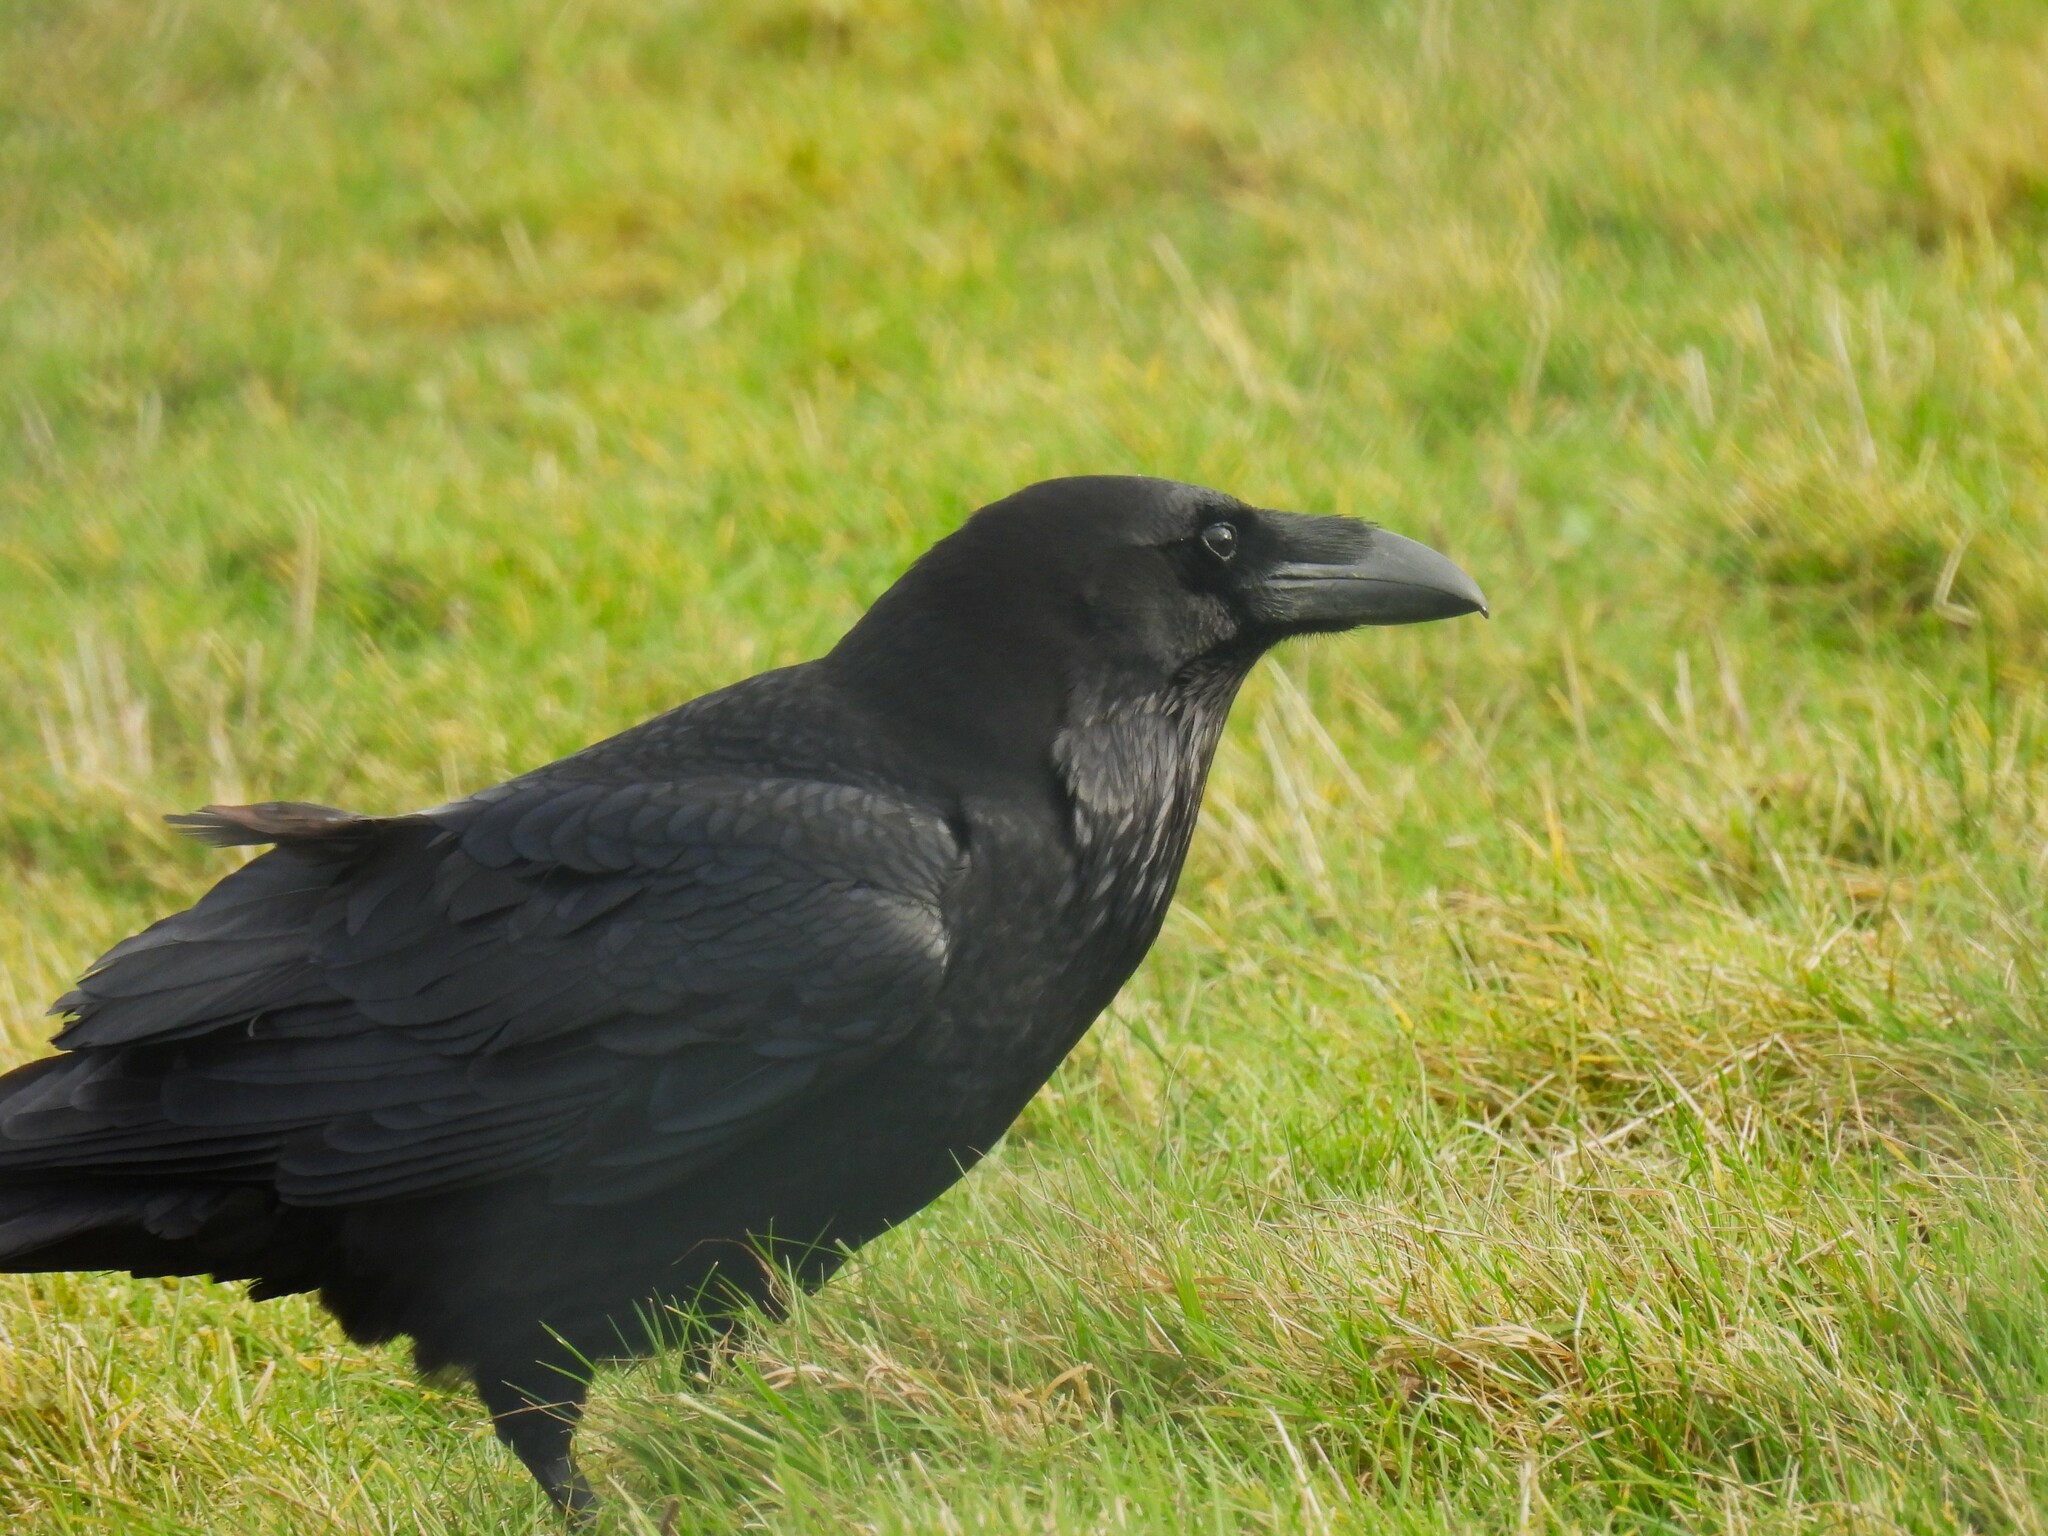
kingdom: Animalia
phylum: Chordata
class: Aves
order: Passeriformes
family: Corvidae
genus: Corvus
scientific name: Corvus corax
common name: Common raven
